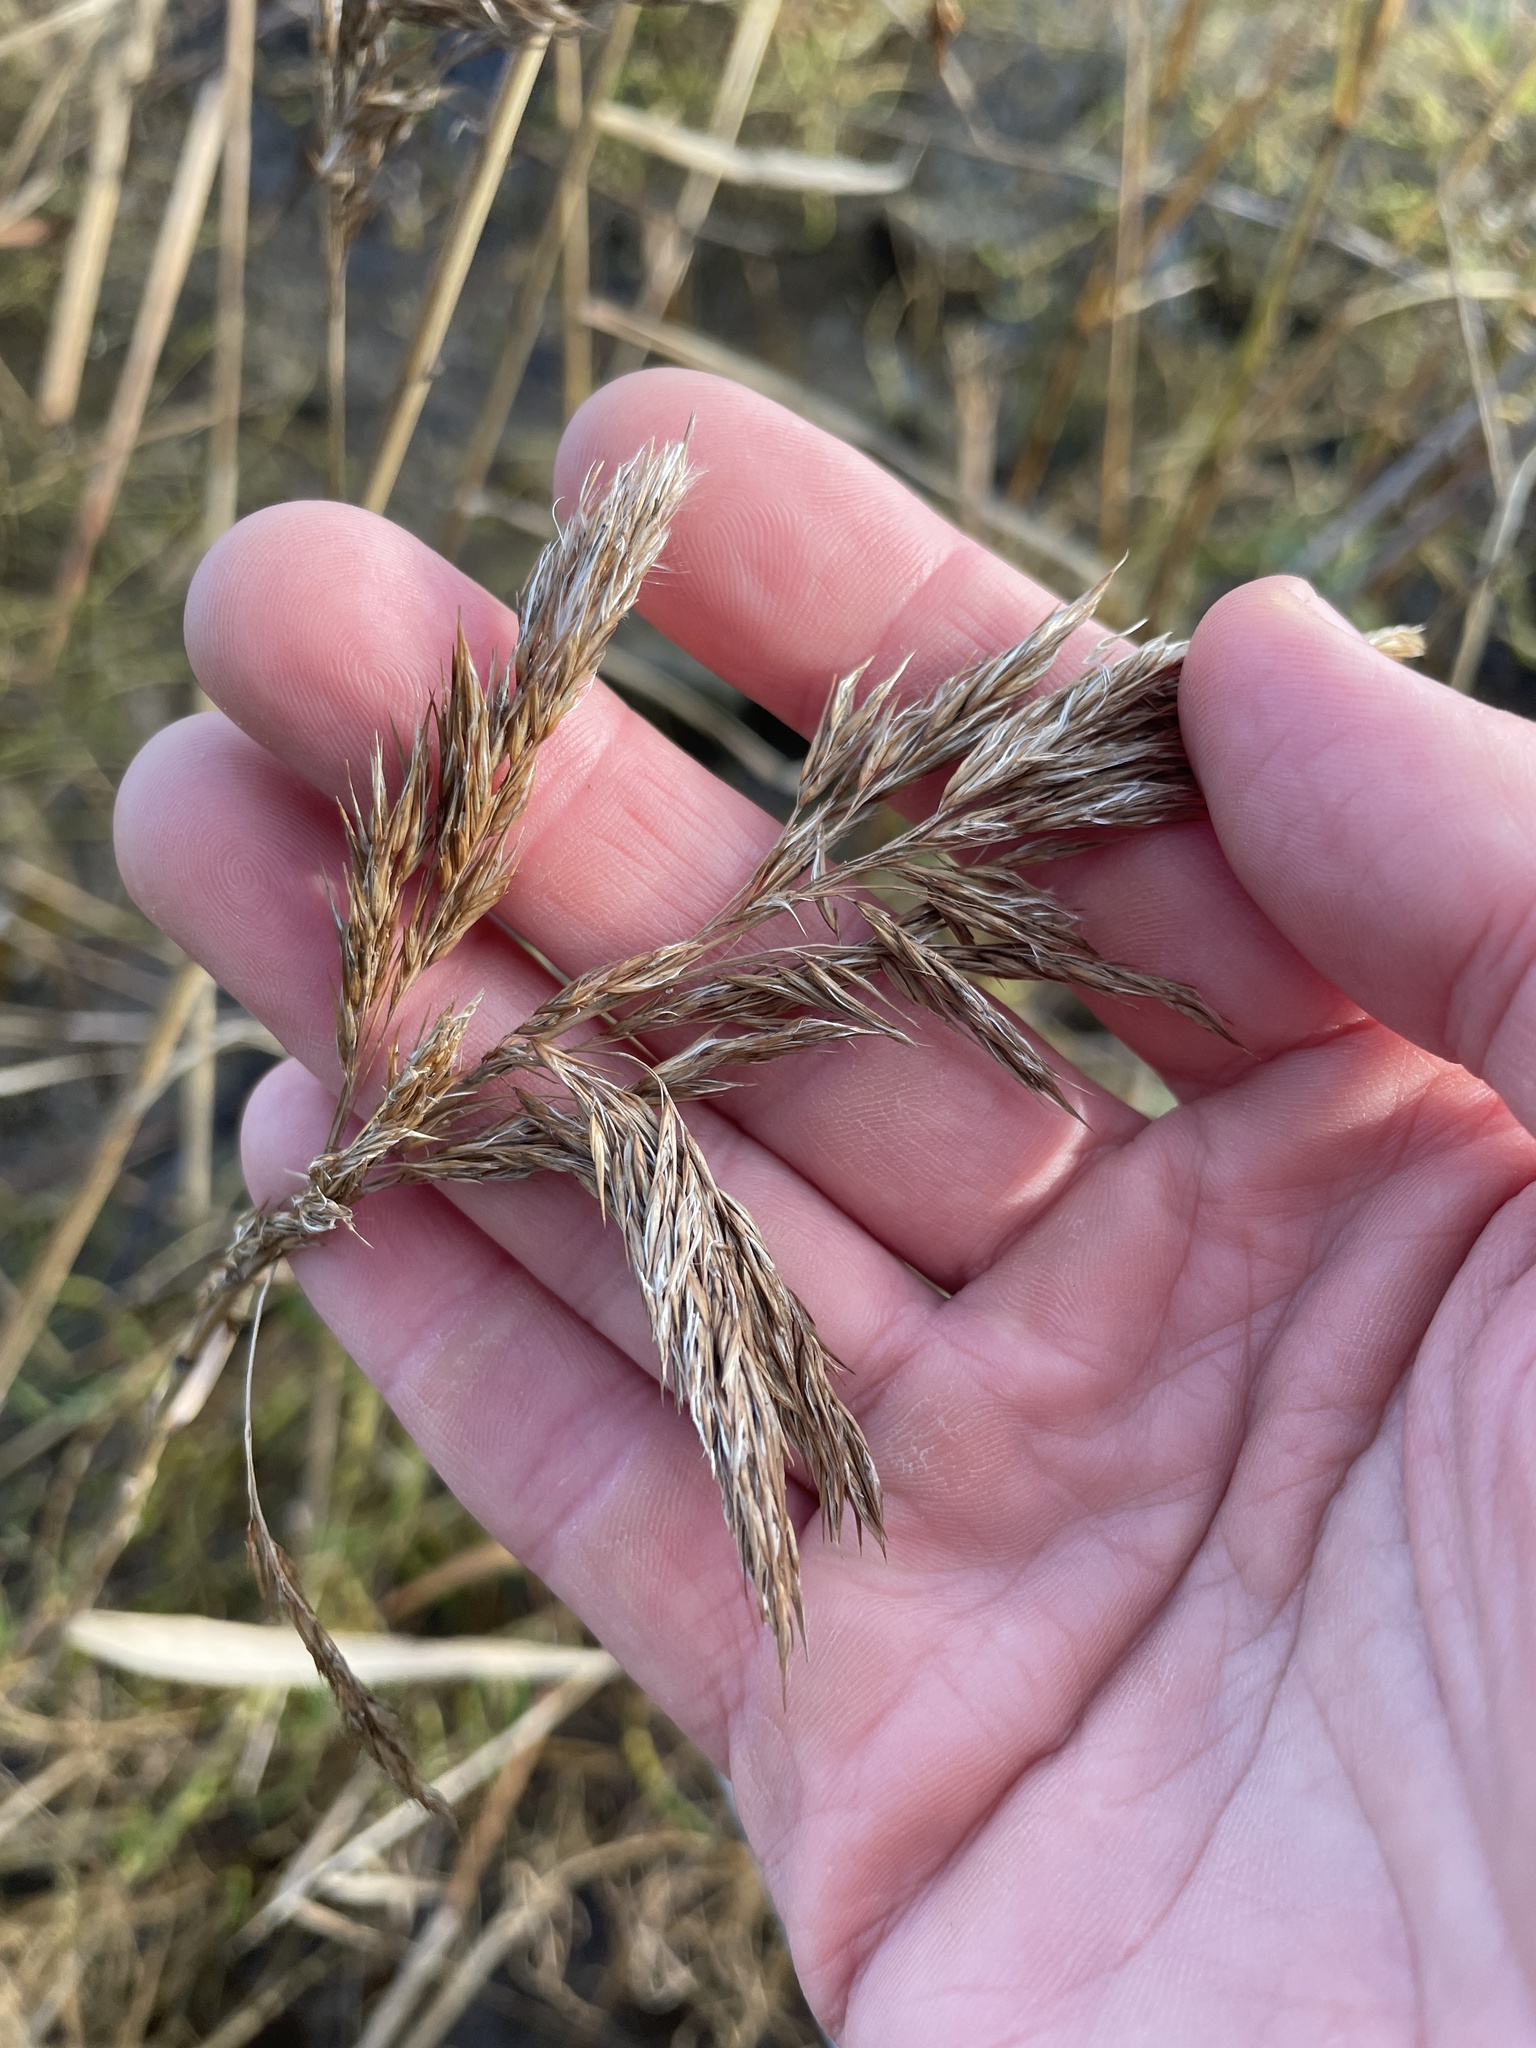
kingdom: Plantae
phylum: Tracheophyta
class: Liliopsida
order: Poales
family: Poaceae
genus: Phragmites
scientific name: Phragmites australis
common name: Common reed
